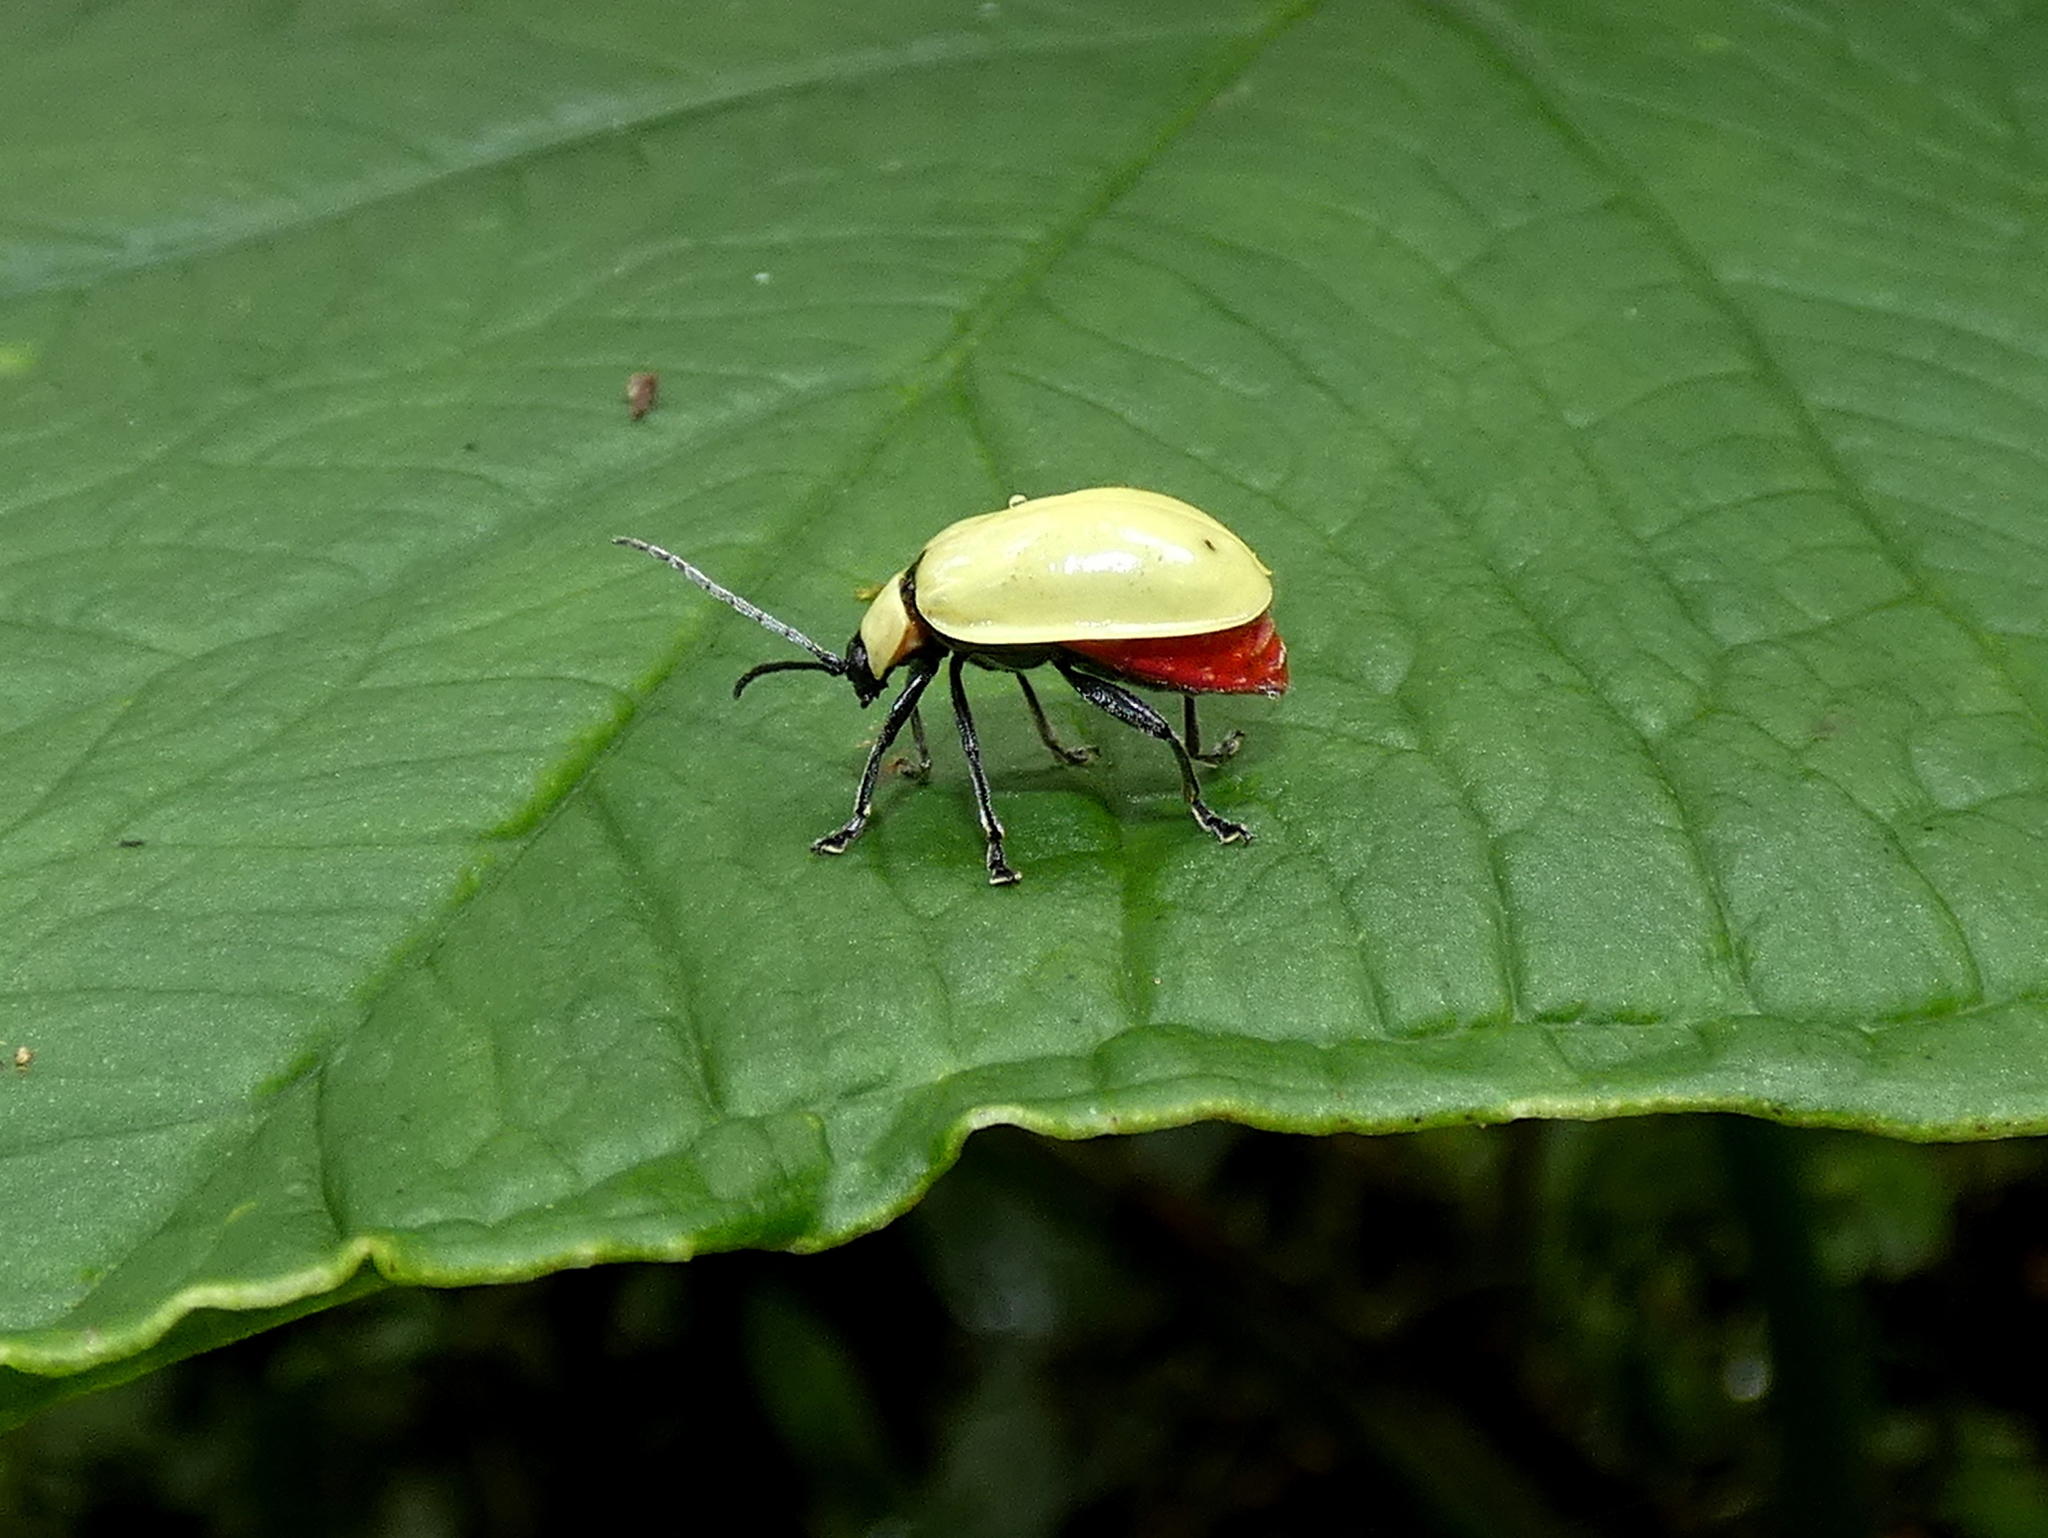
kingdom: Animalia
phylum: Arthropoda
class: Insecta
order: Coleoptera
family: Chrysomelidae
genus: Asphaera
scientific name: Asphaera
